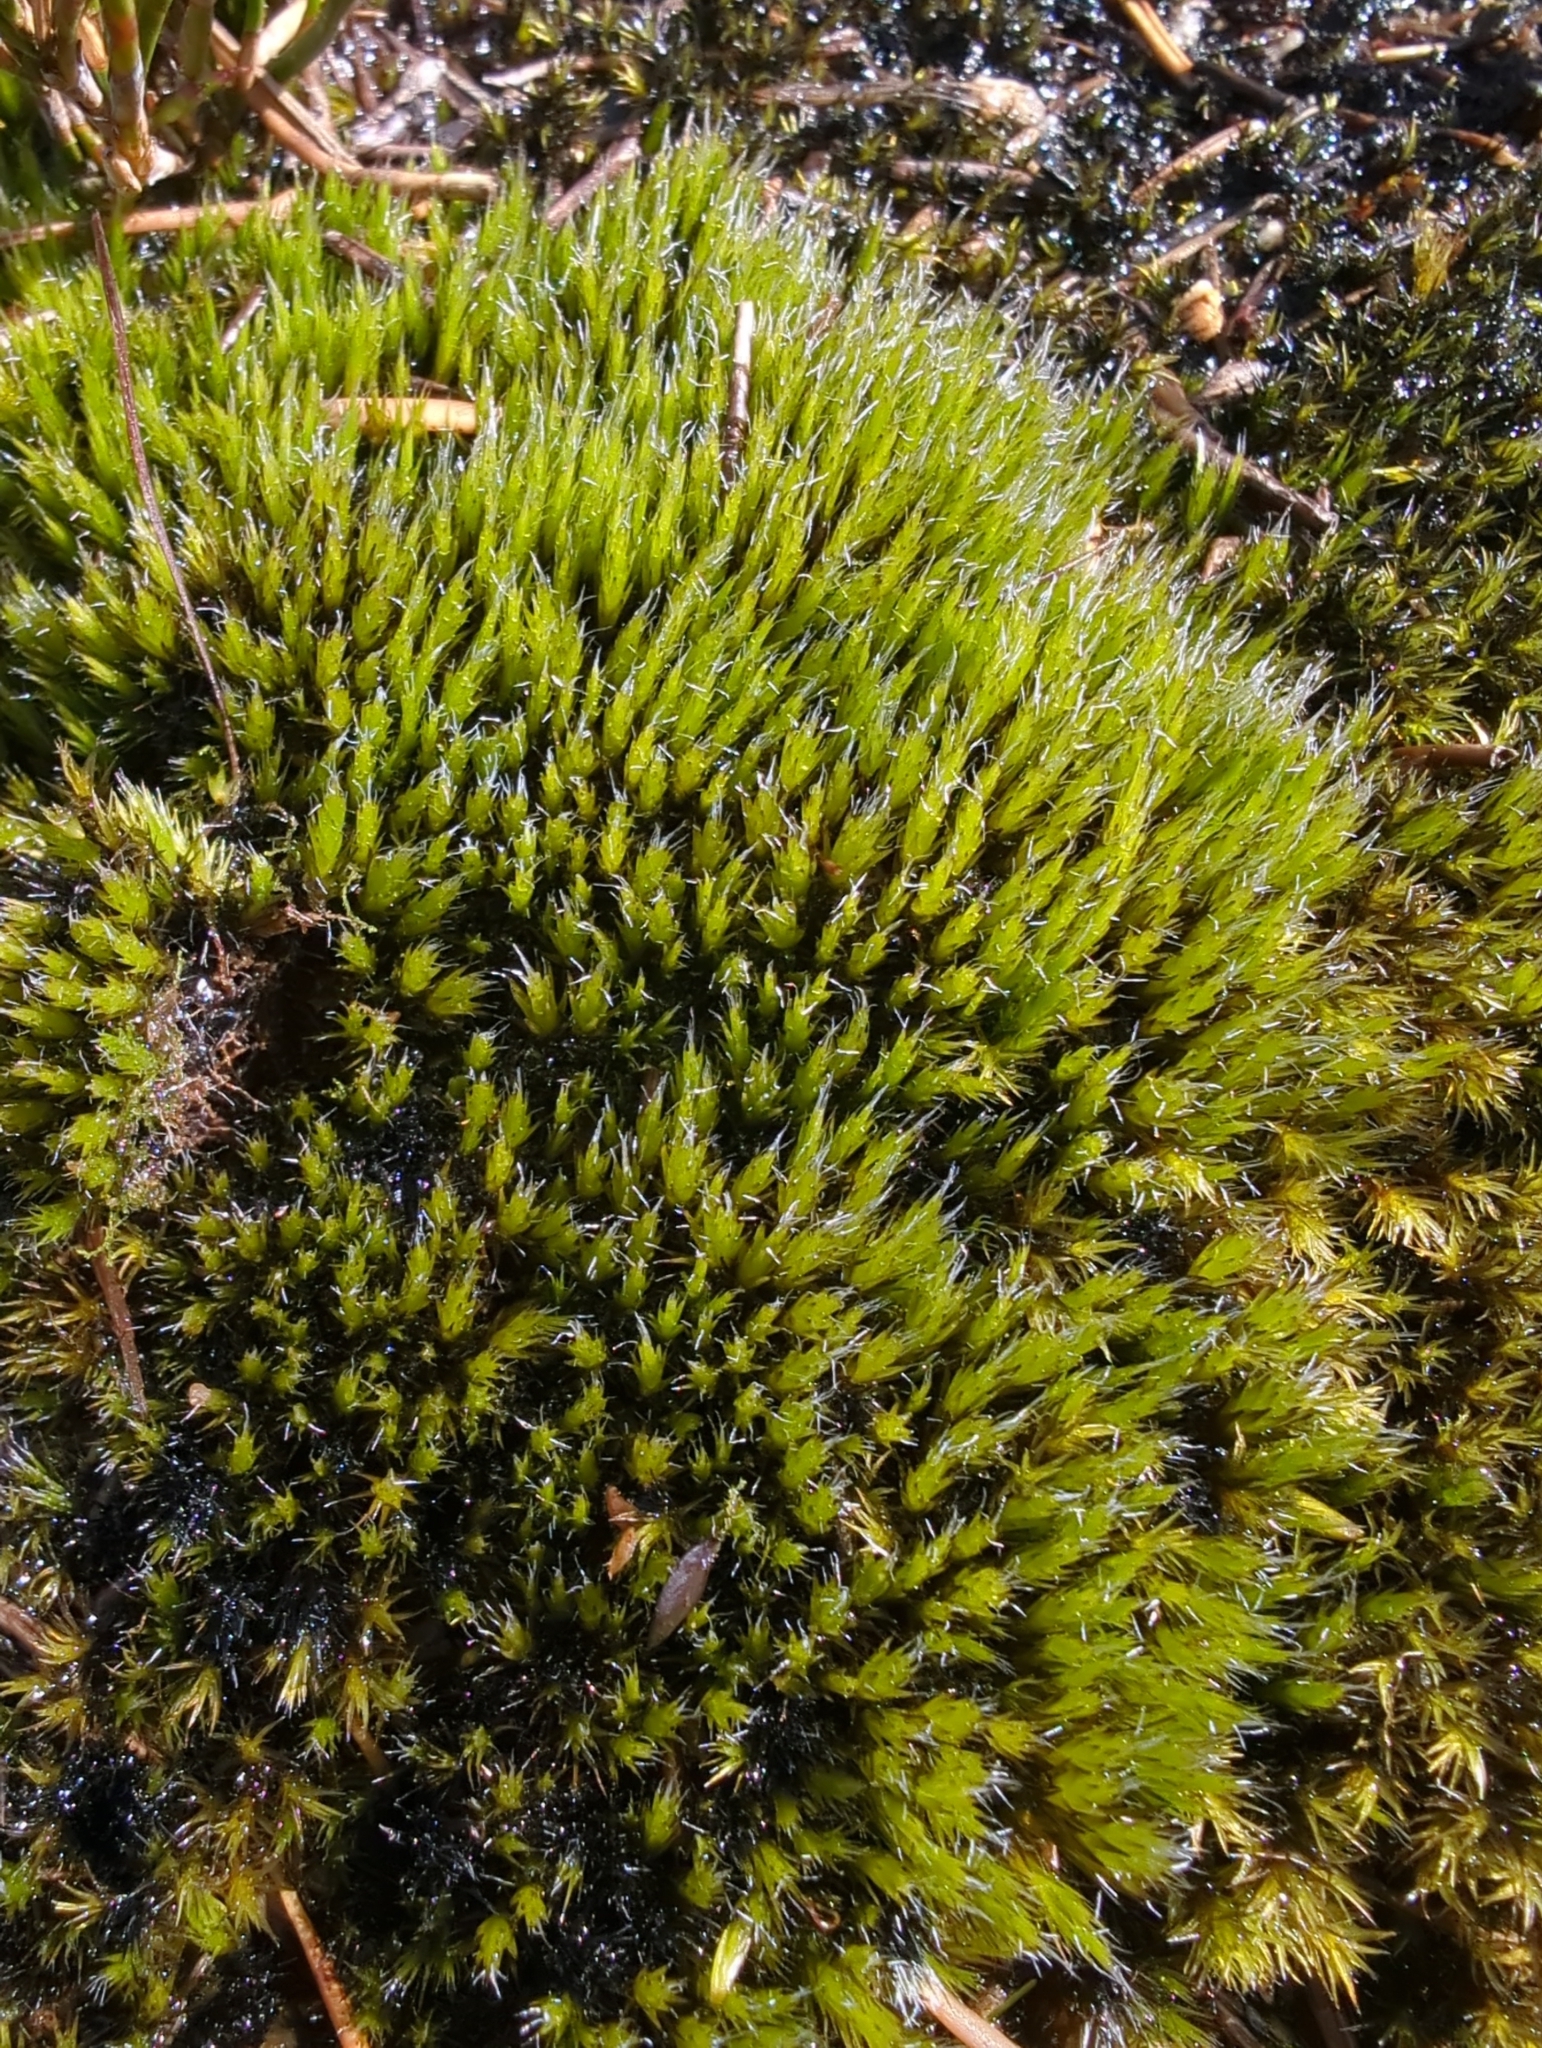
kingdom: Plantae
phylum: Bryophyta
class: Bryopsida
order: Dicranales
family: Leucobryaceae
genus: Campylopus
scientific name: Campylopus introflexus
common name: Heath star moss
